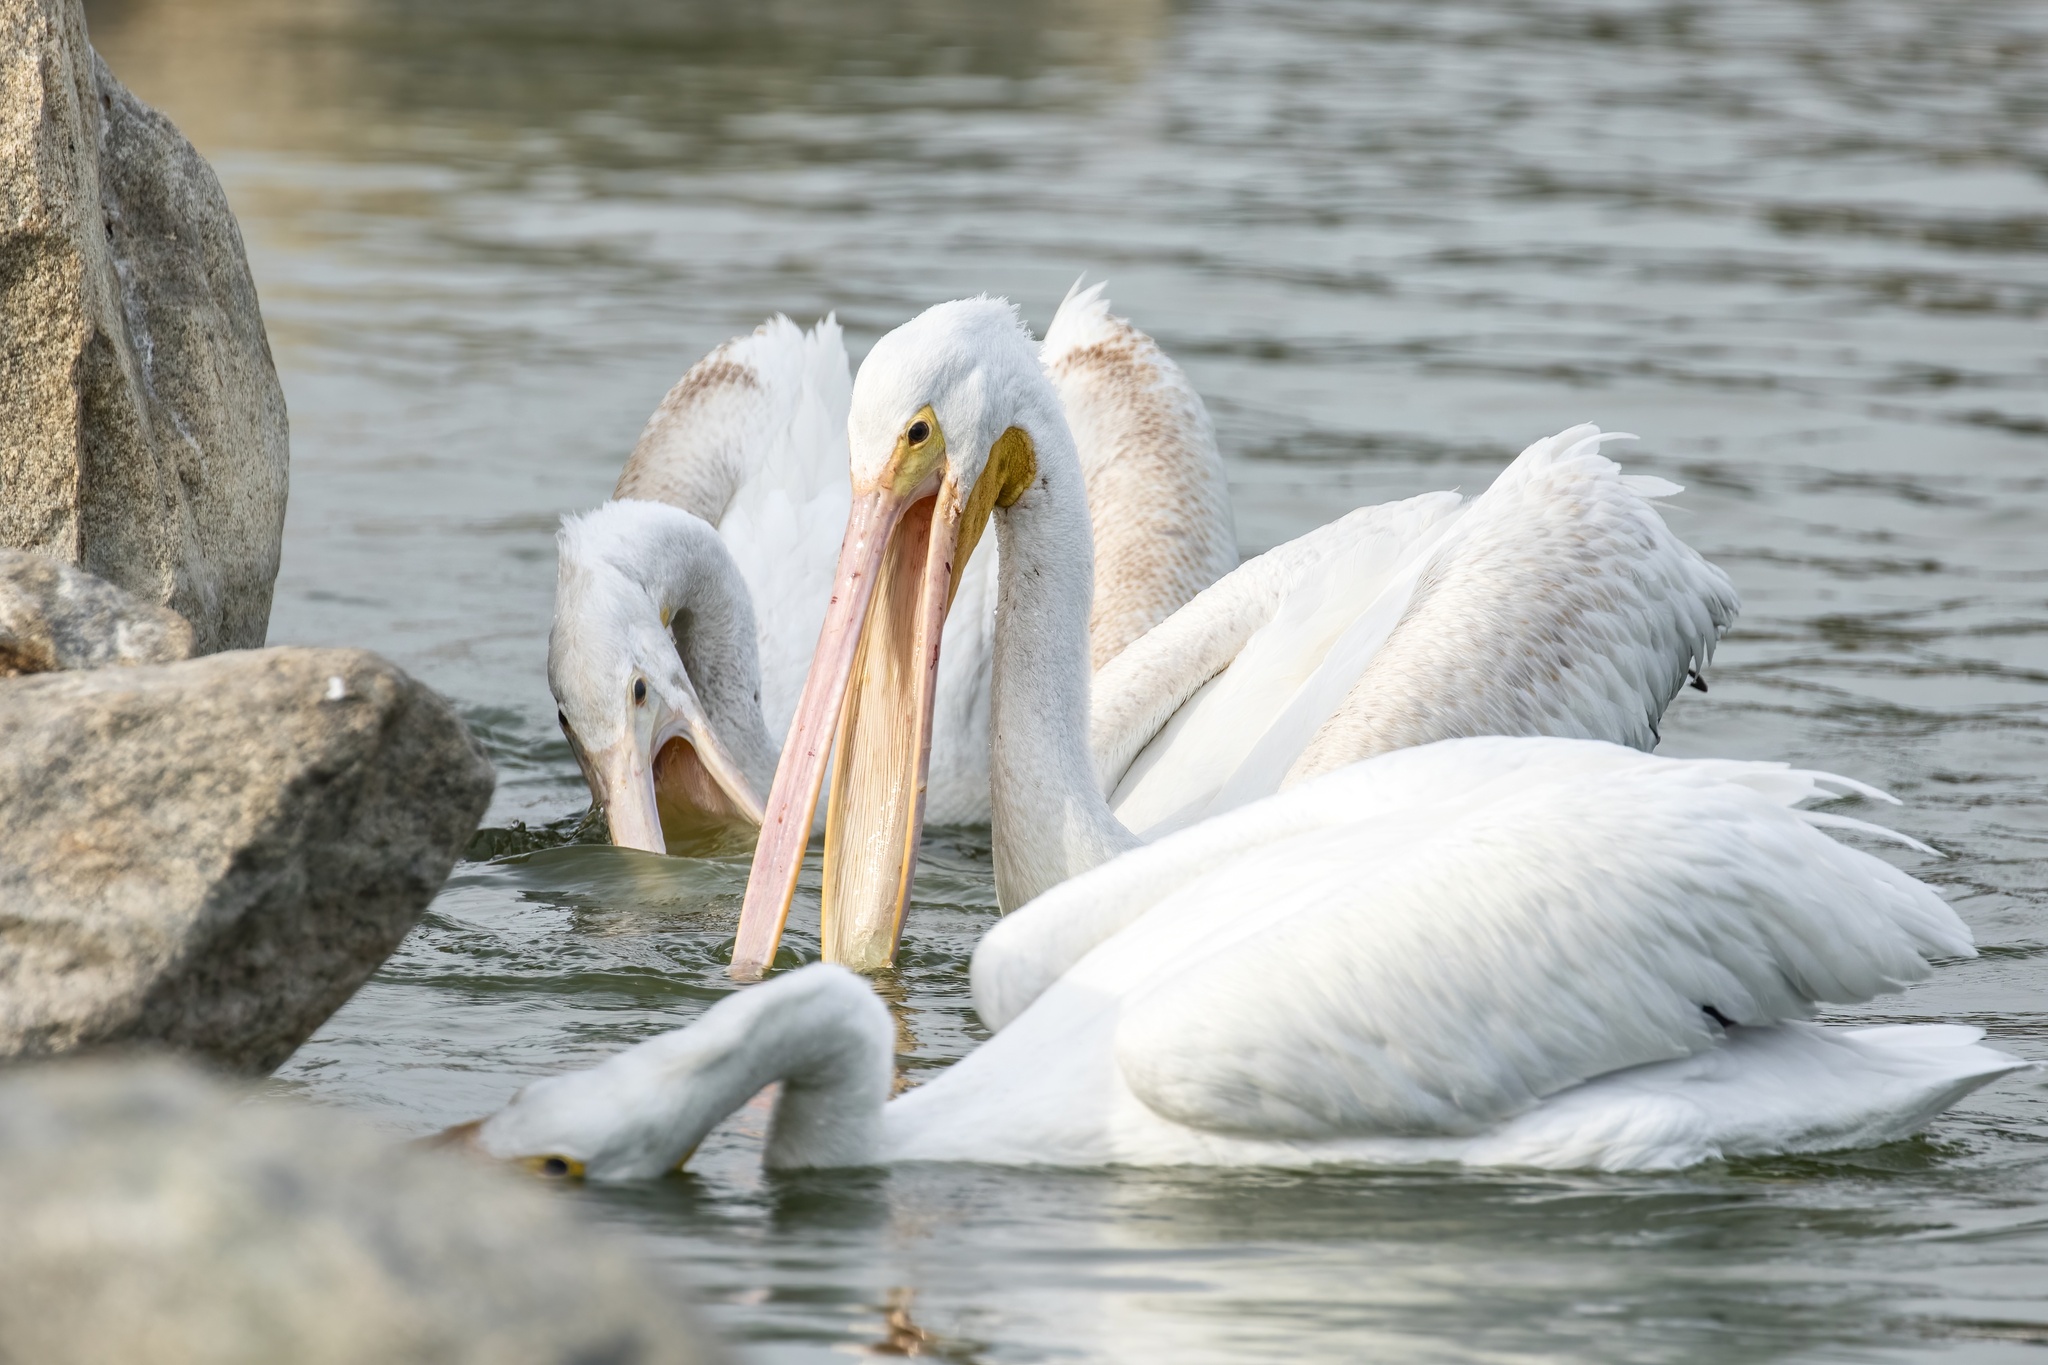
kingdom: Animalia
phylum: Chordata
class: Aves
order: Pelecaniformes
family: Pelecanidae
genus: Pelecanus
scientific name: Pelecanus erythrorhynchos
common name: American white pelican
